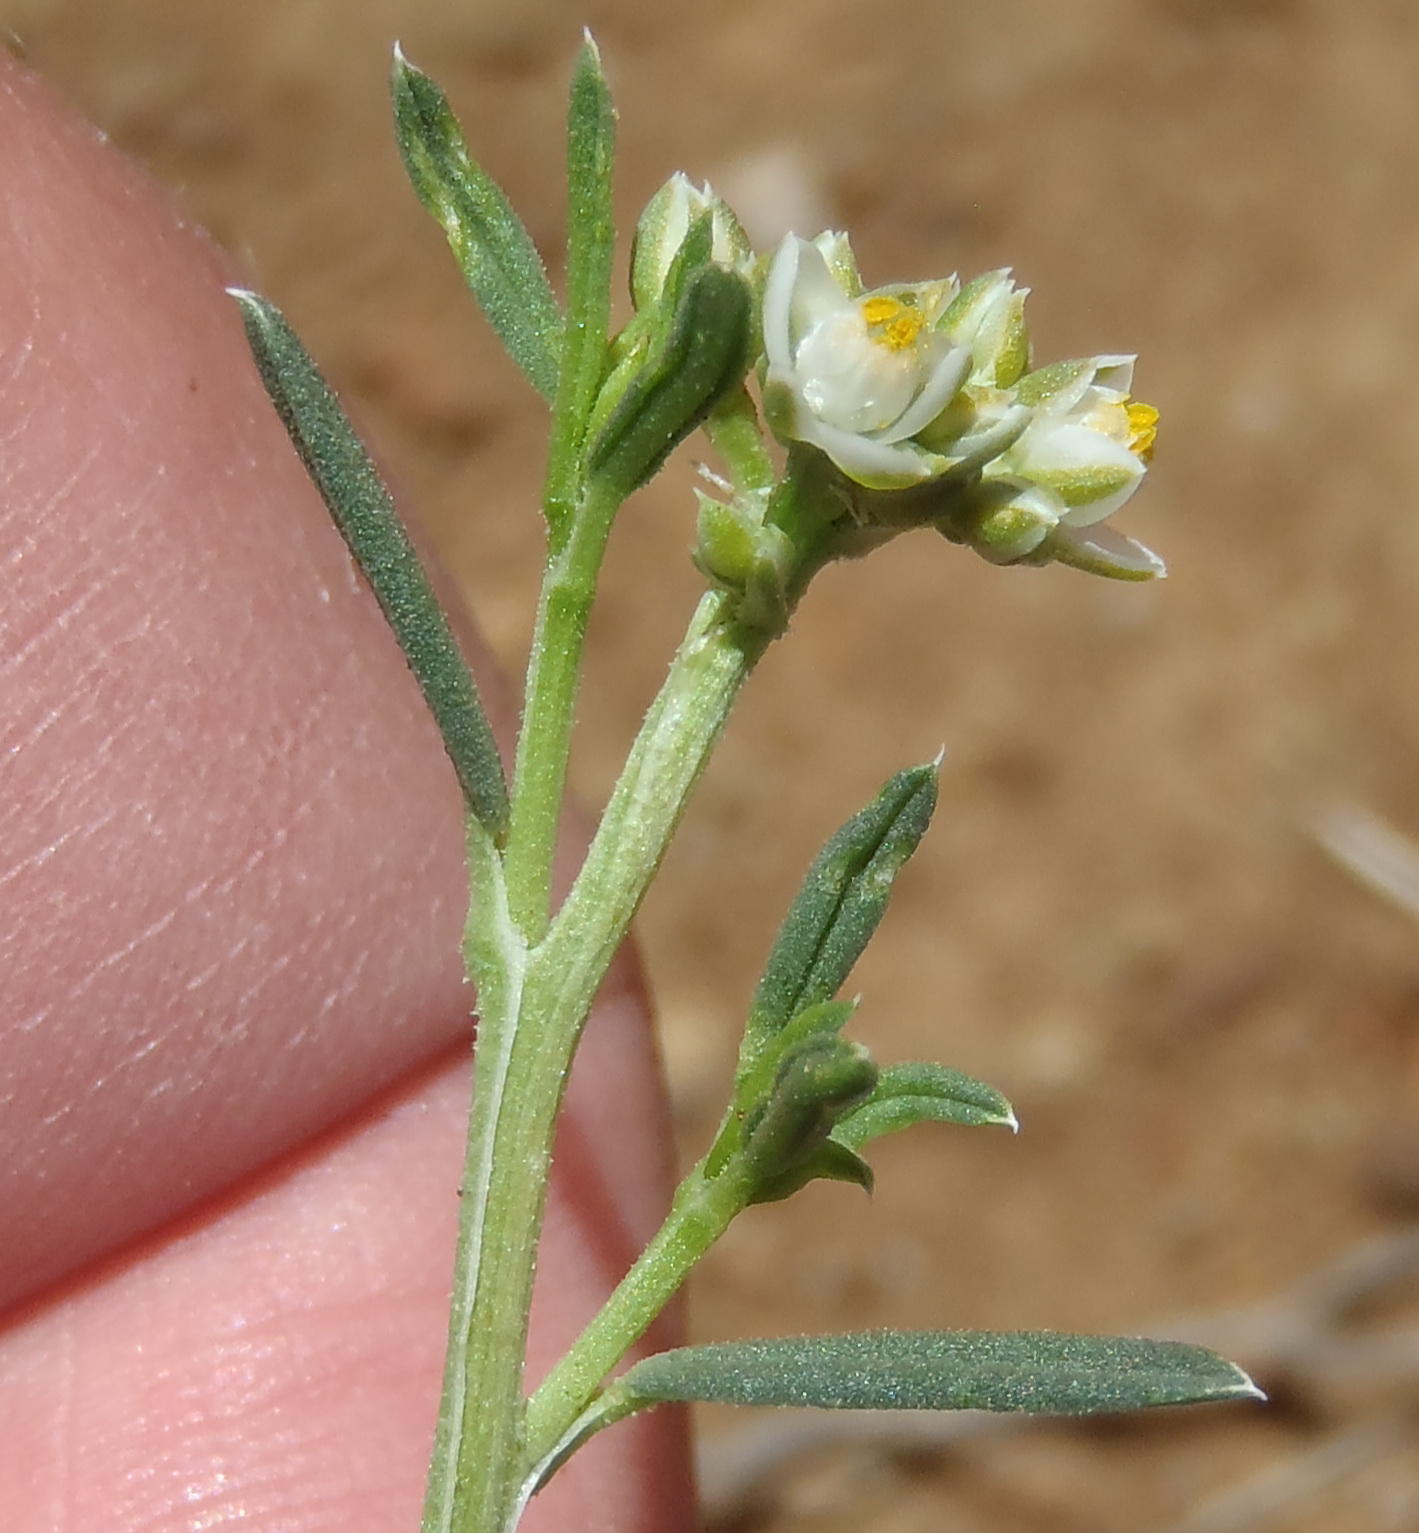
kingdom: Plantae
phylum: Tracheophyta
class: Magnoliopsida
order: Caryophyllales
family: Limeaceae
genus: Limeum
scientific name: Limeum aethiopicum
